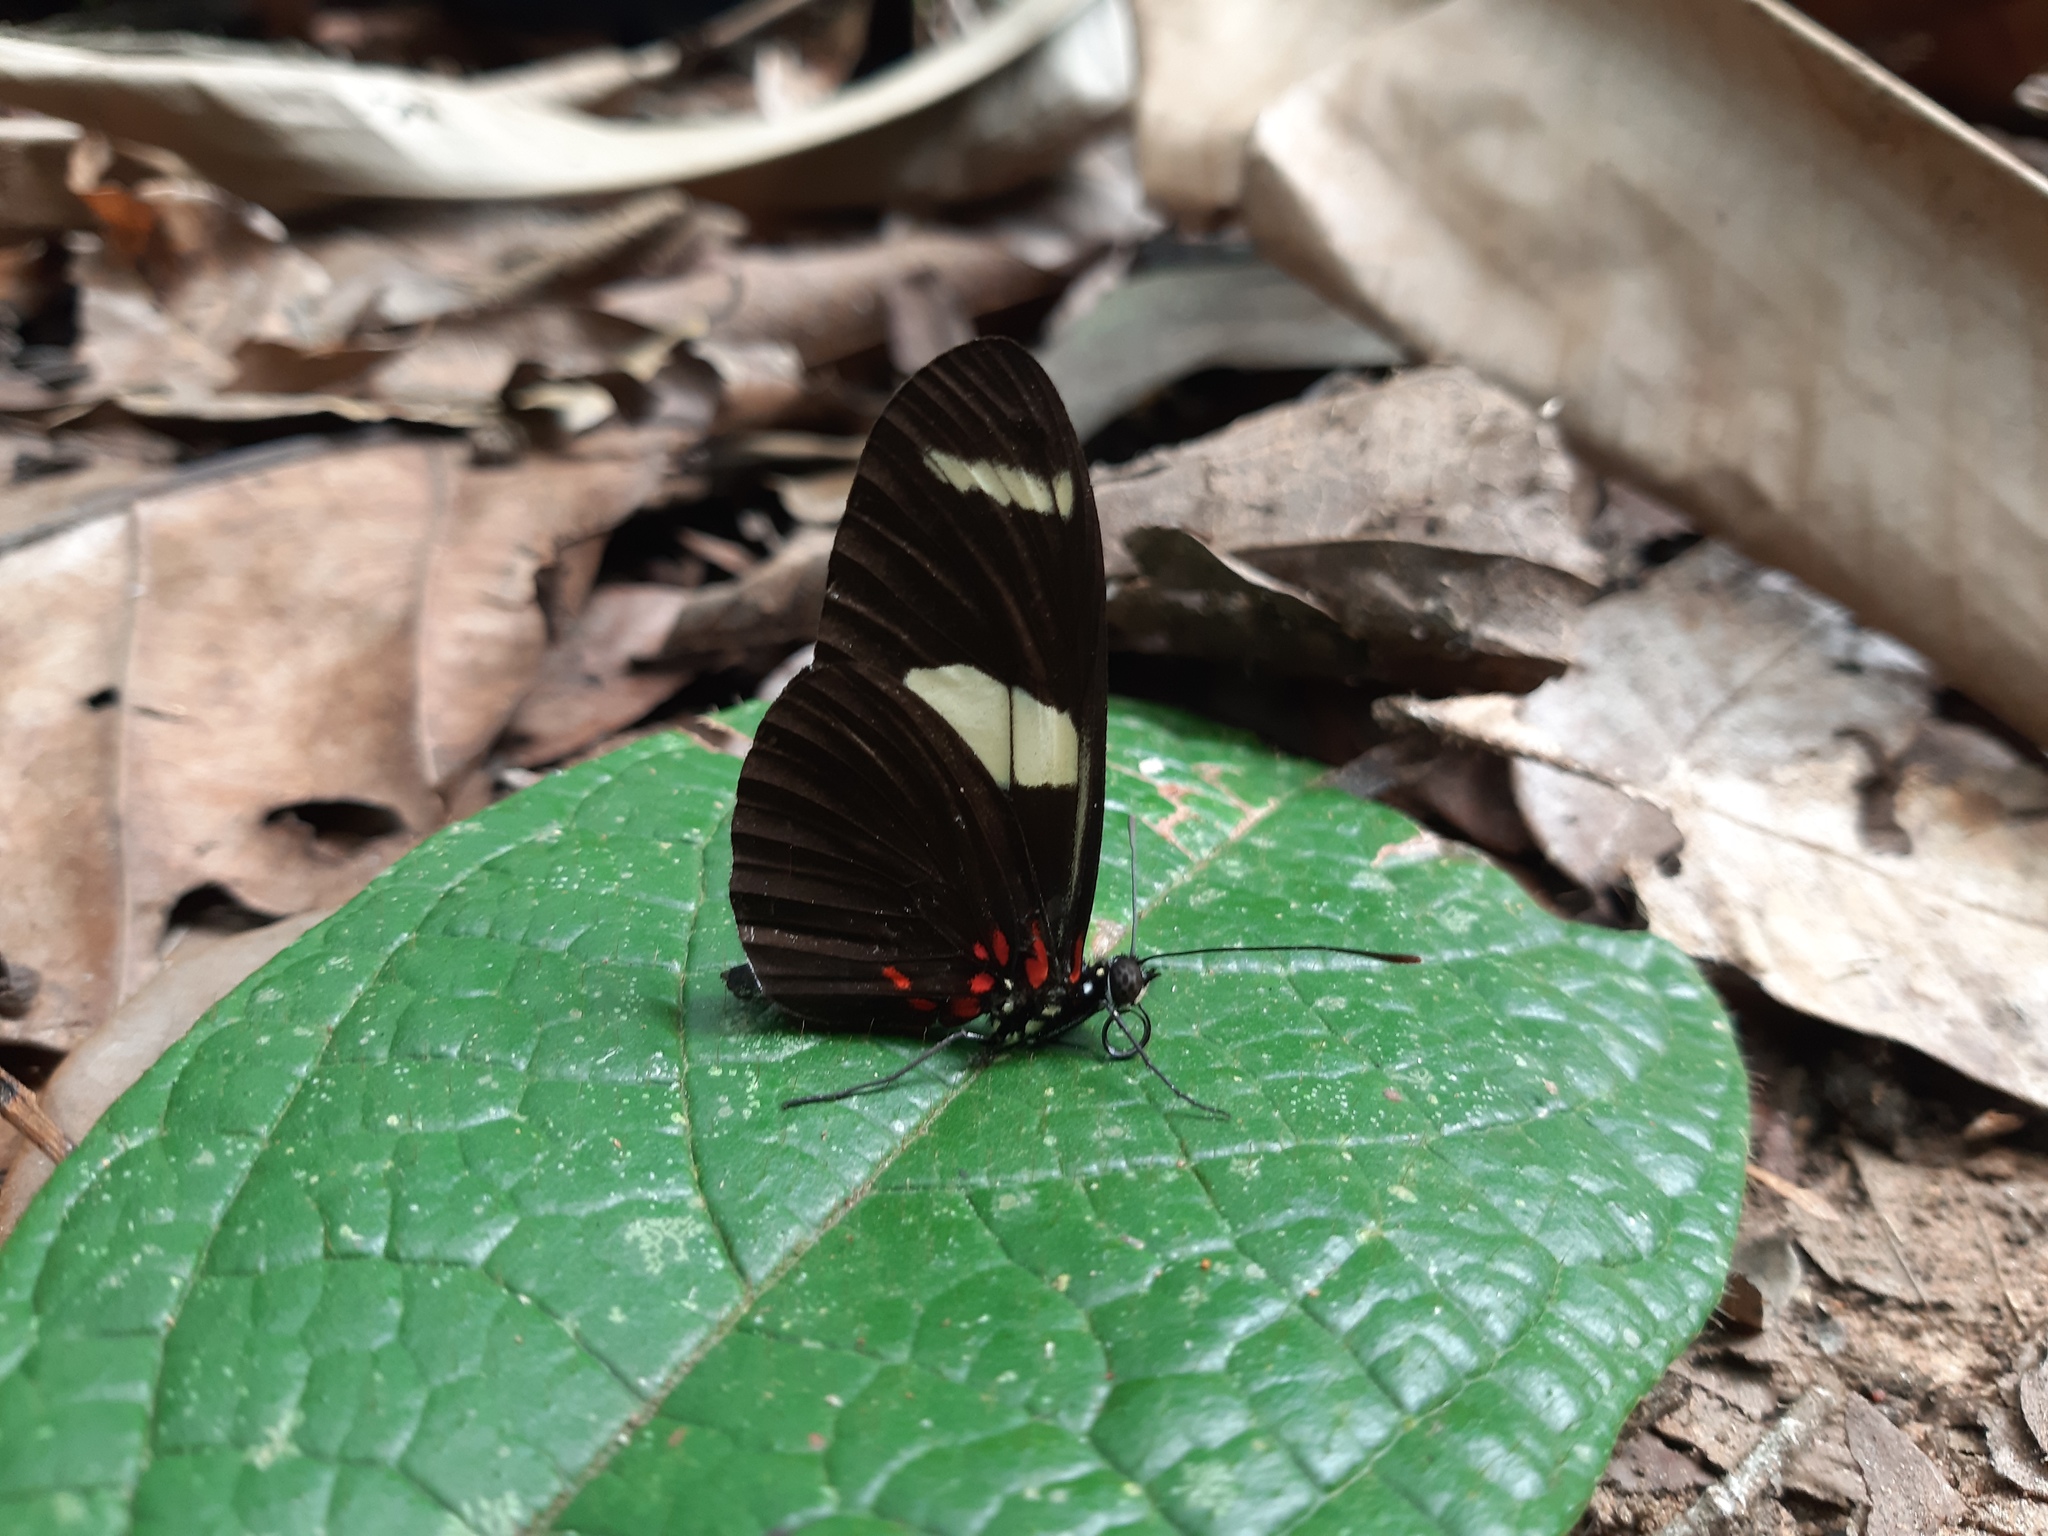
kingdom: Animalia
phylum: Arthropoda
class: Insecta
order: Lepidoptera
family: Nymphalidae
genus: Heliconius
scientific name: Heliconius sara
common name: Sara longwing
